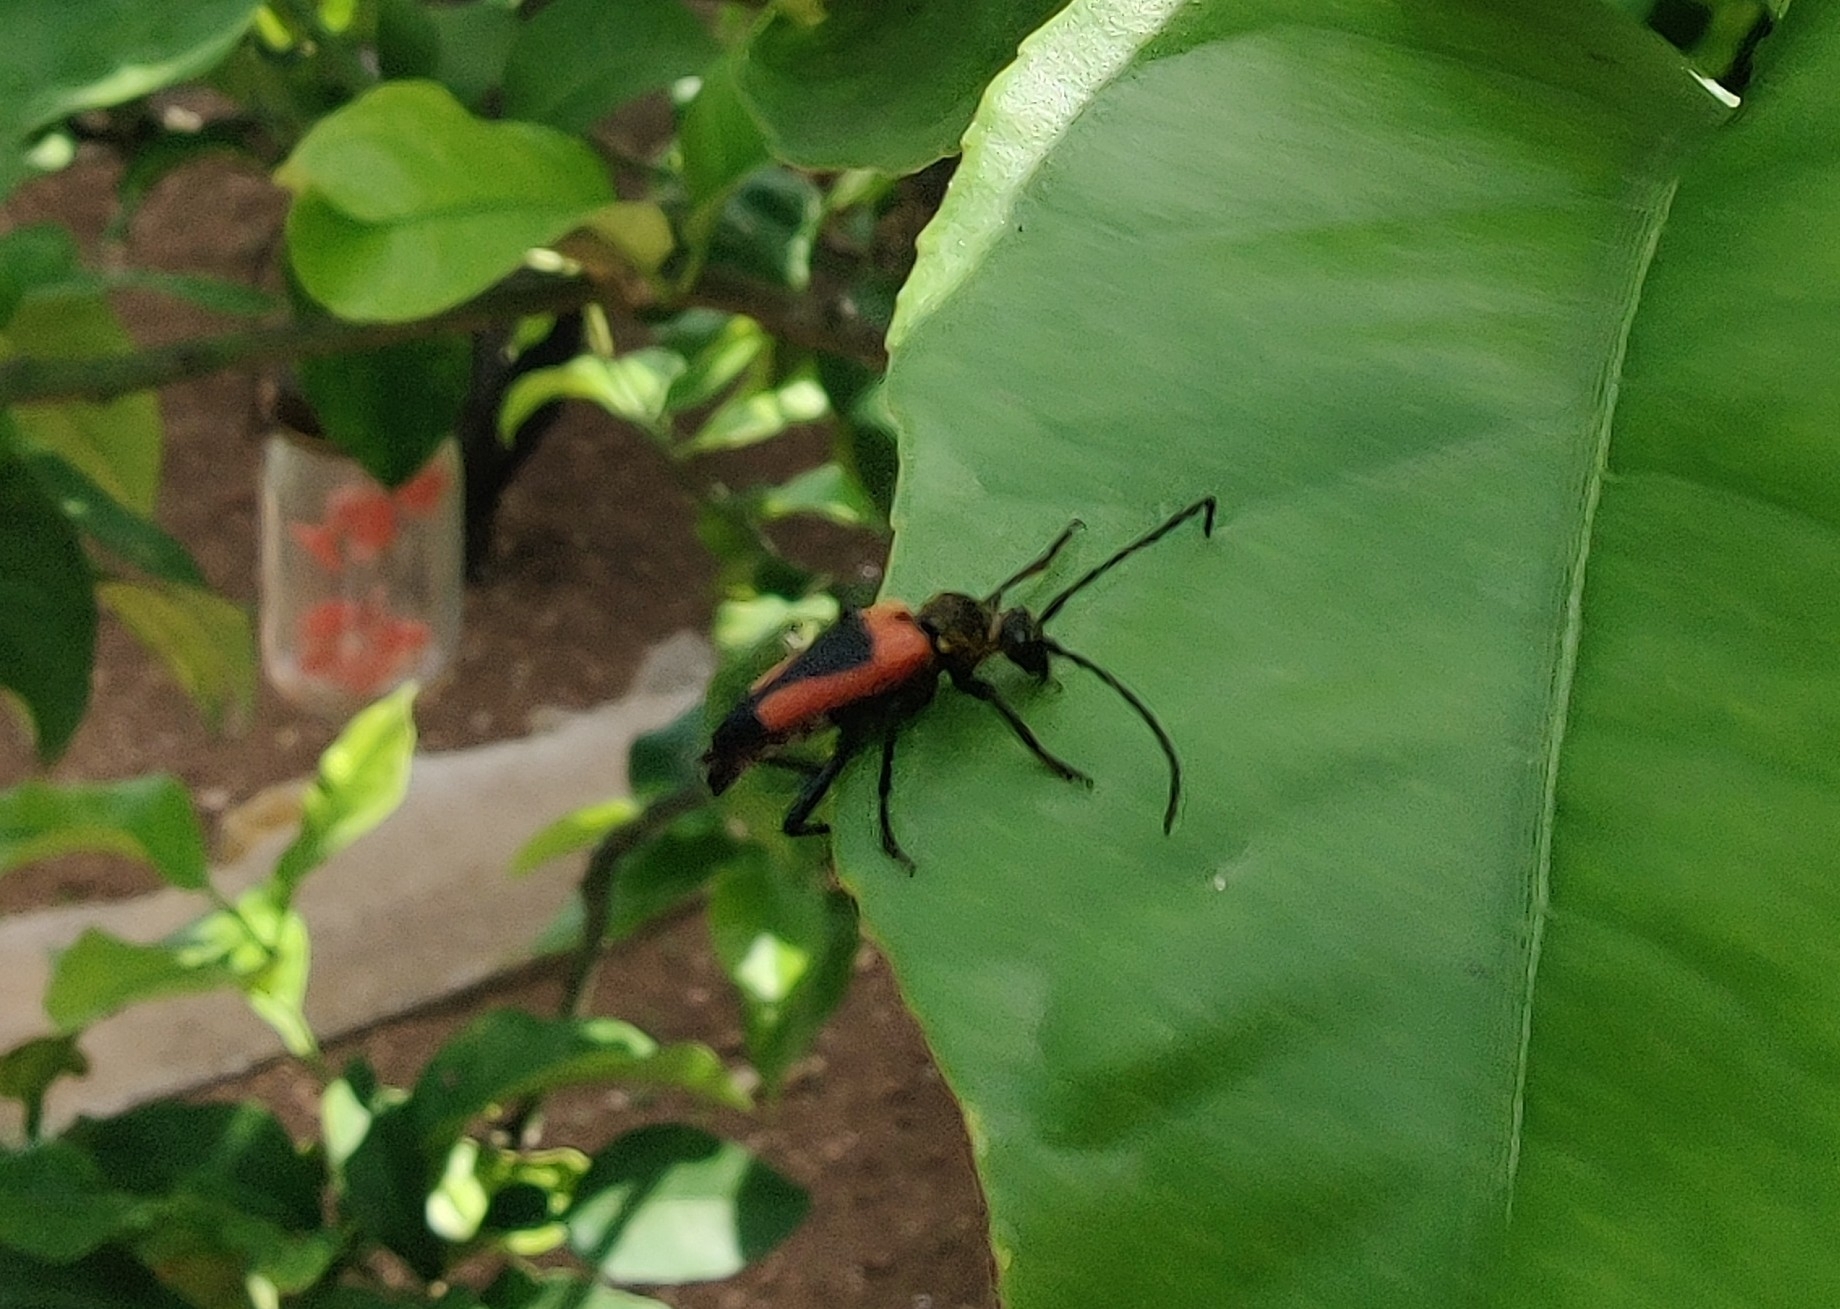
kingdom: Animalia
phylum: Arthropoda
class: Insecta
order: Coleoptera
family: Cerambycidae
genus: Stictoleptura
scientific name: Stictoleptura cordigera
